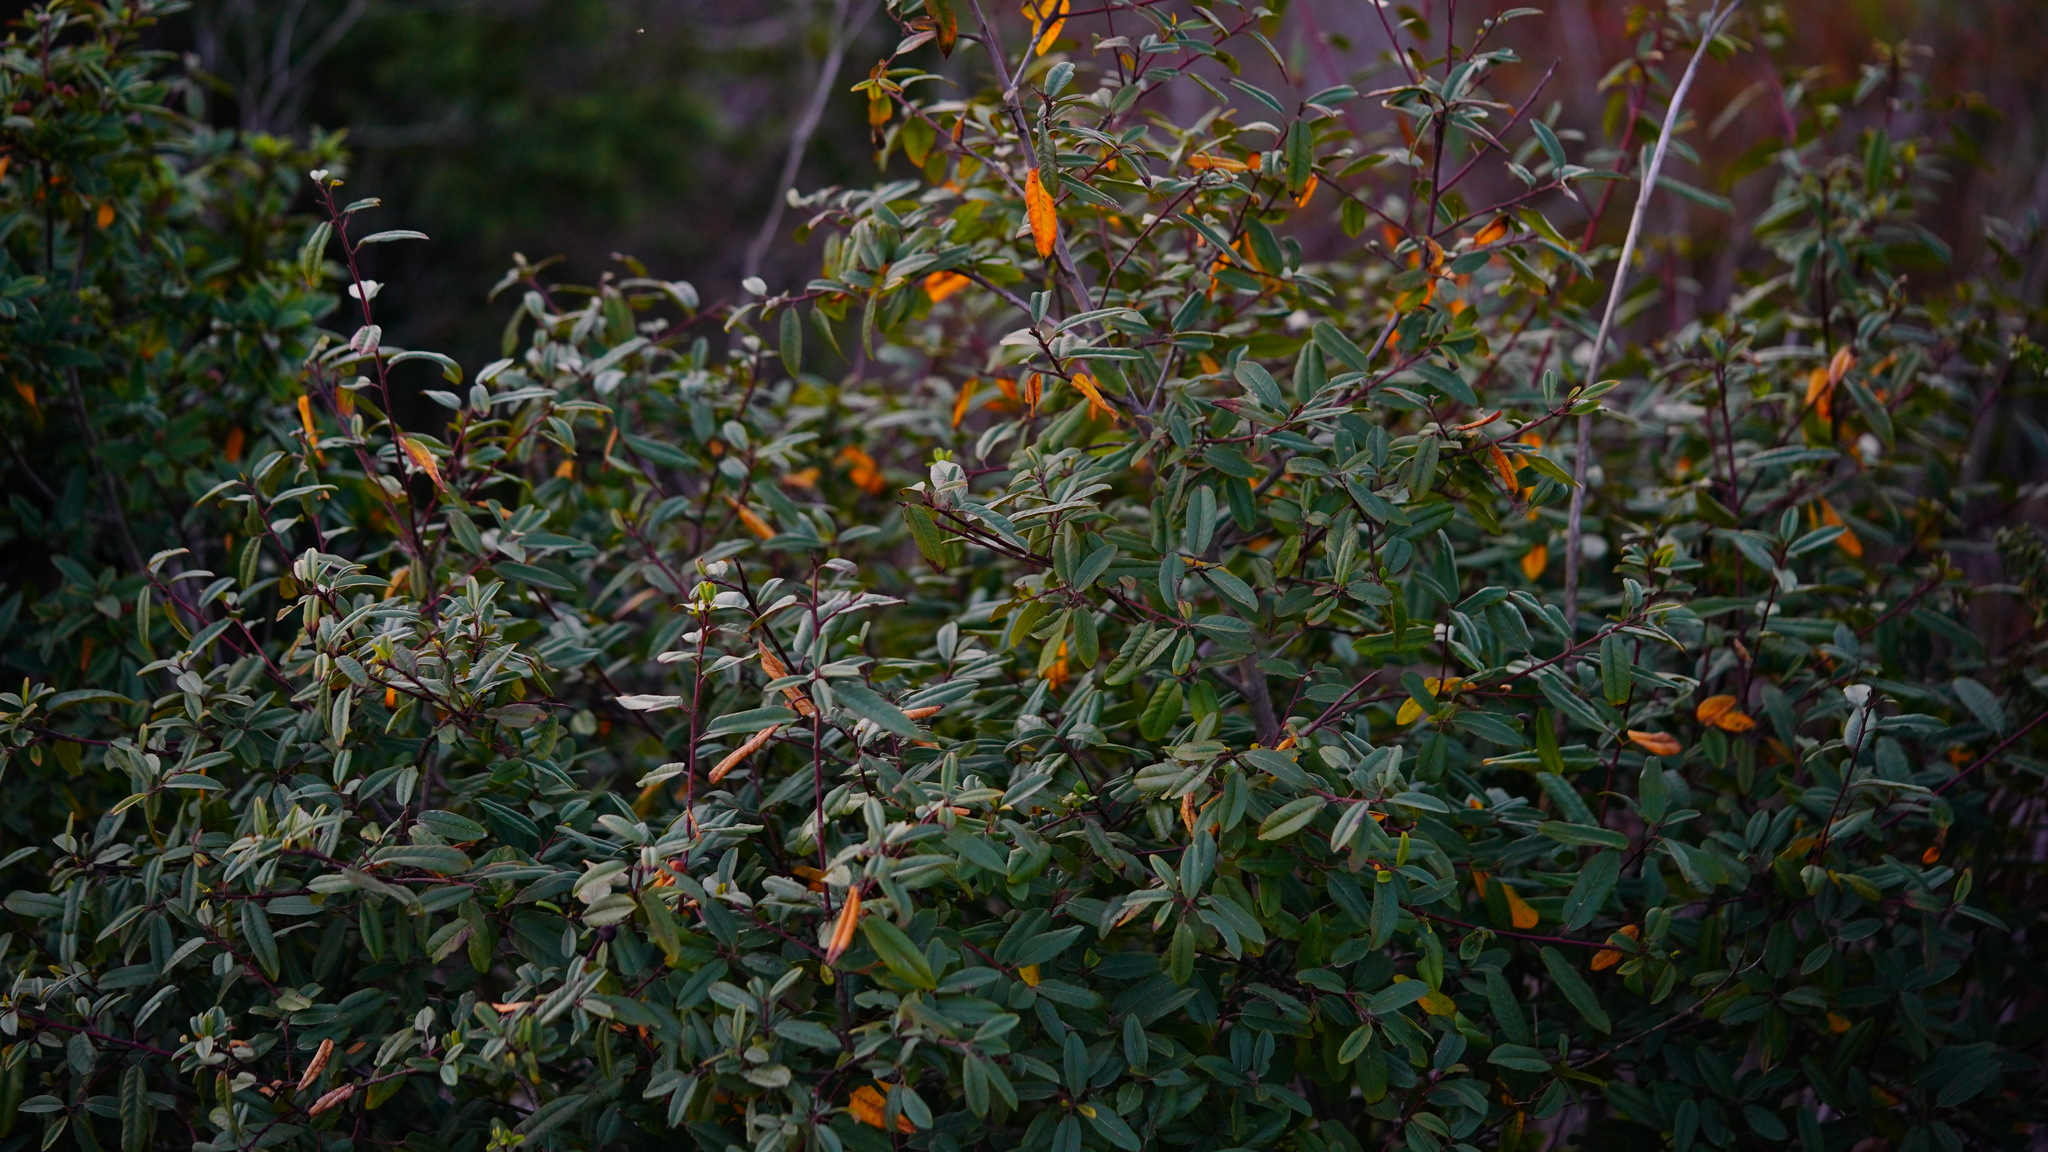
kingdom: Plantae
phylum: Tracheophyta
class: Magnoliopsida
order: Rosales
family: Rhamnaceae
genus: Frangula
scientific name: Frangula californica
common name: California buckthorn
